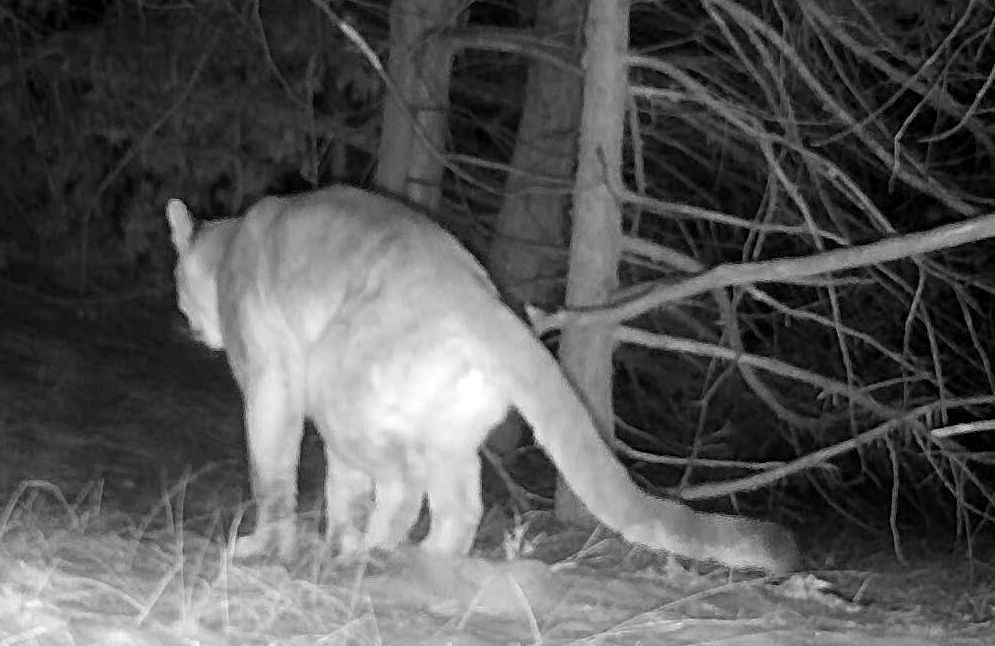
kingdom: Animalia
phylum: Chordata
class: Mammalia
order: Carnivora
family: Felidae
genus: Puma
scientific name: Puma concolor
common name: Puma
